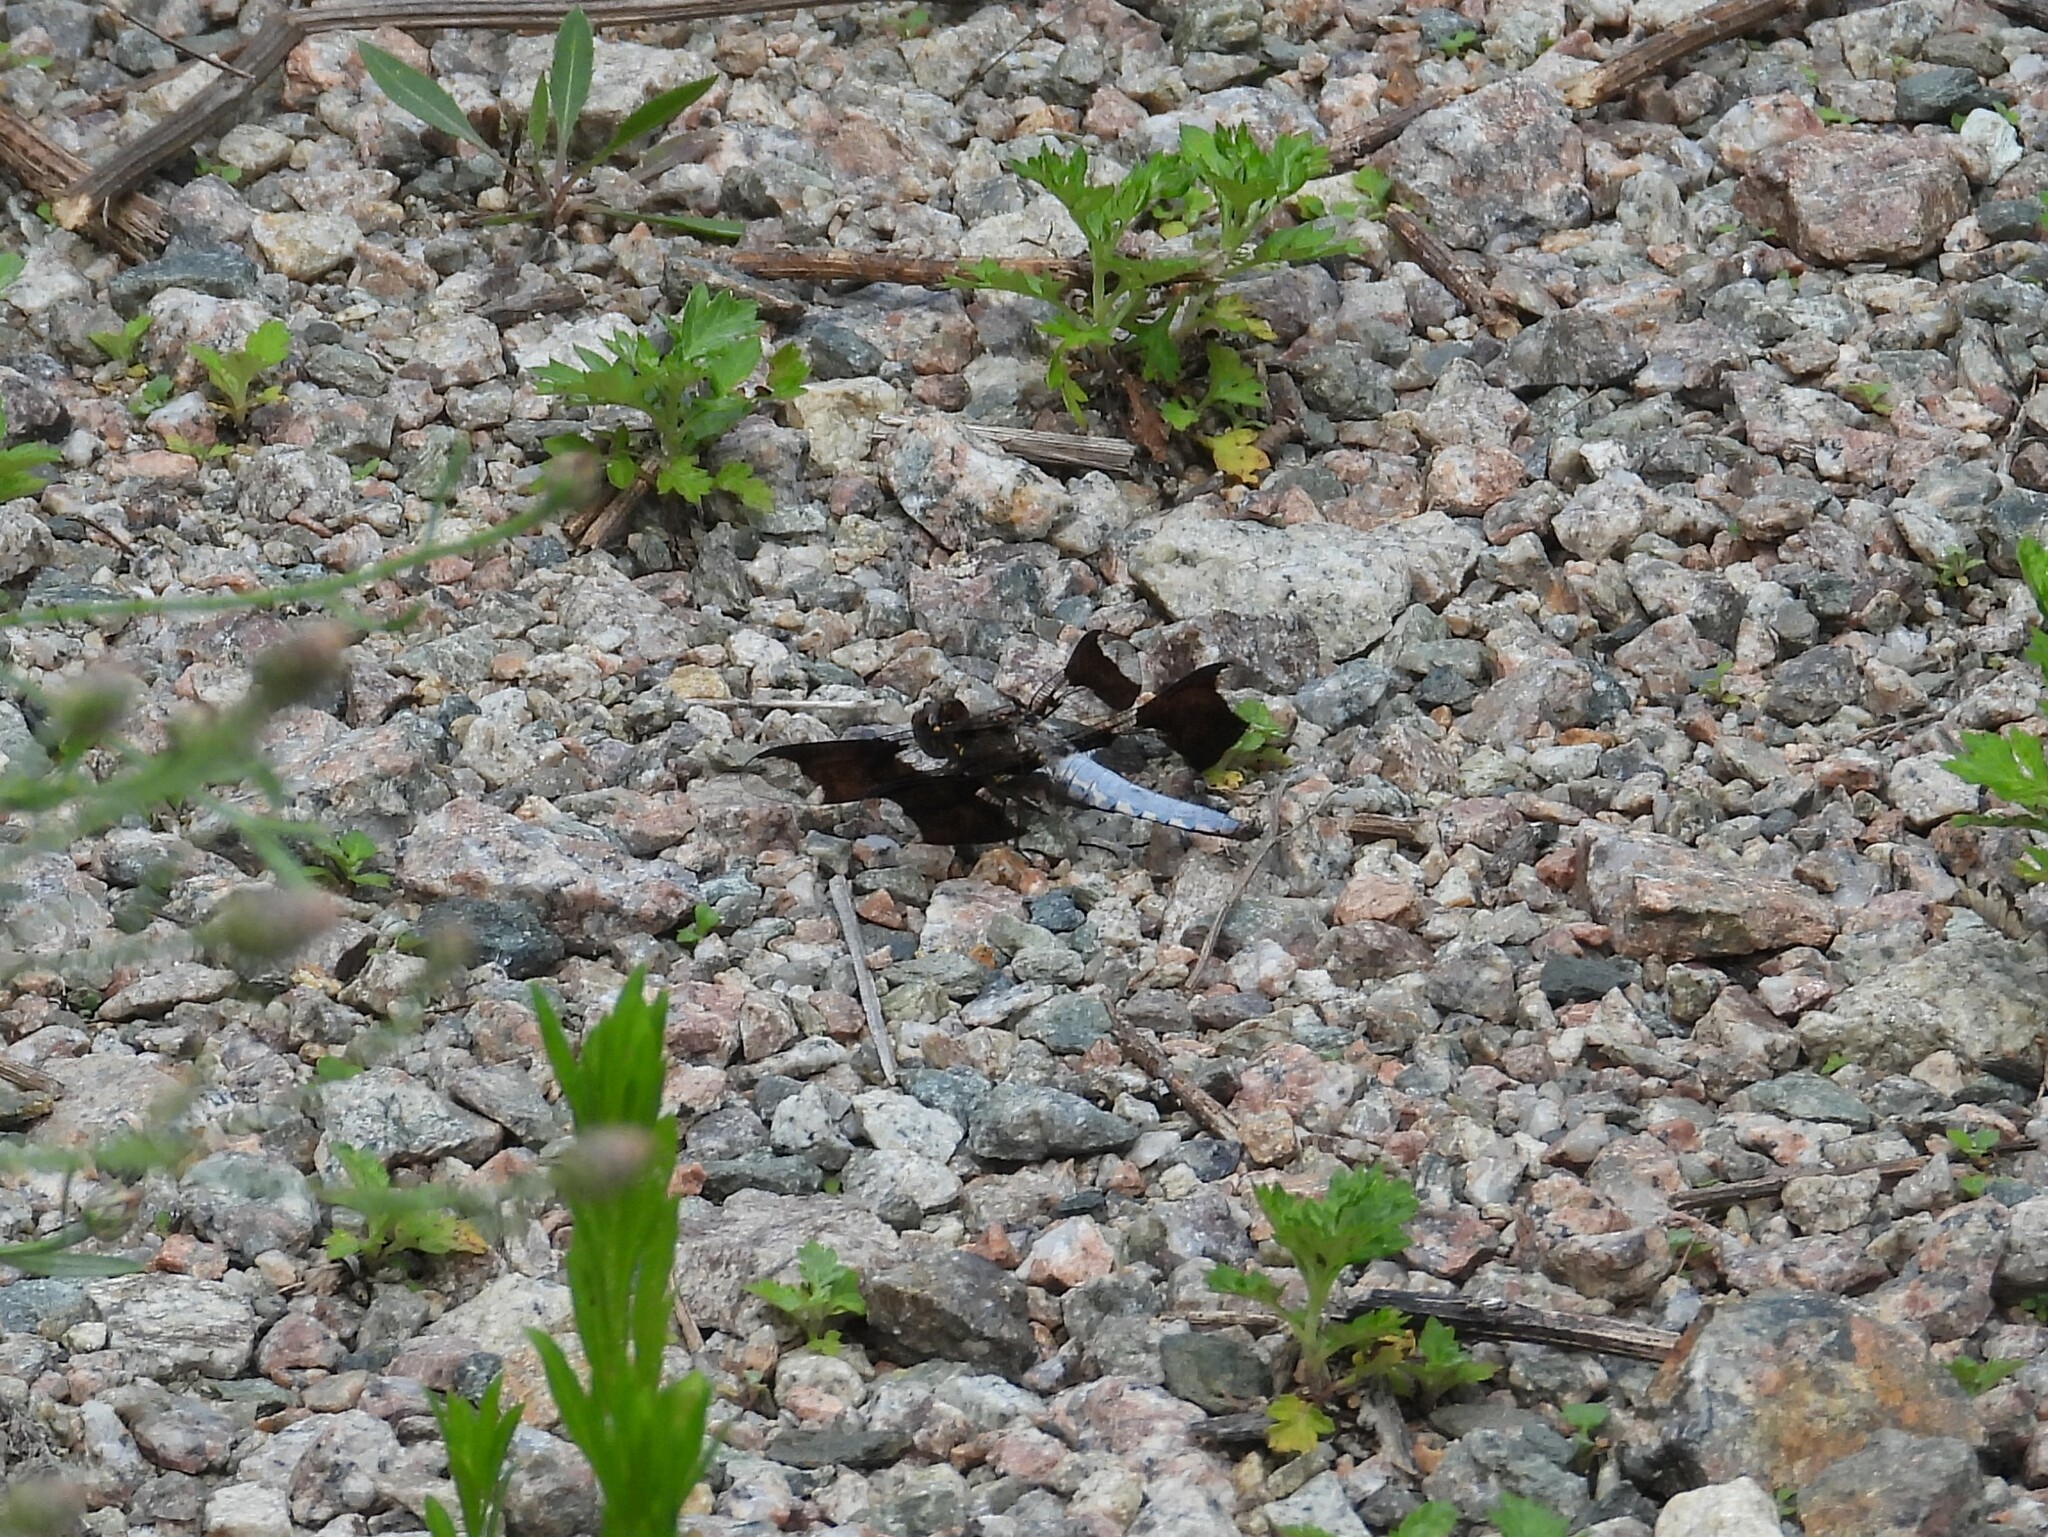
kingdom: Animalia
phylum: Arthropoda
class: Insecta
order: Odonata
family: Libellulidae
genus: Plathemis
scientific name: Plathemis lydia
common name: Common whitetail
